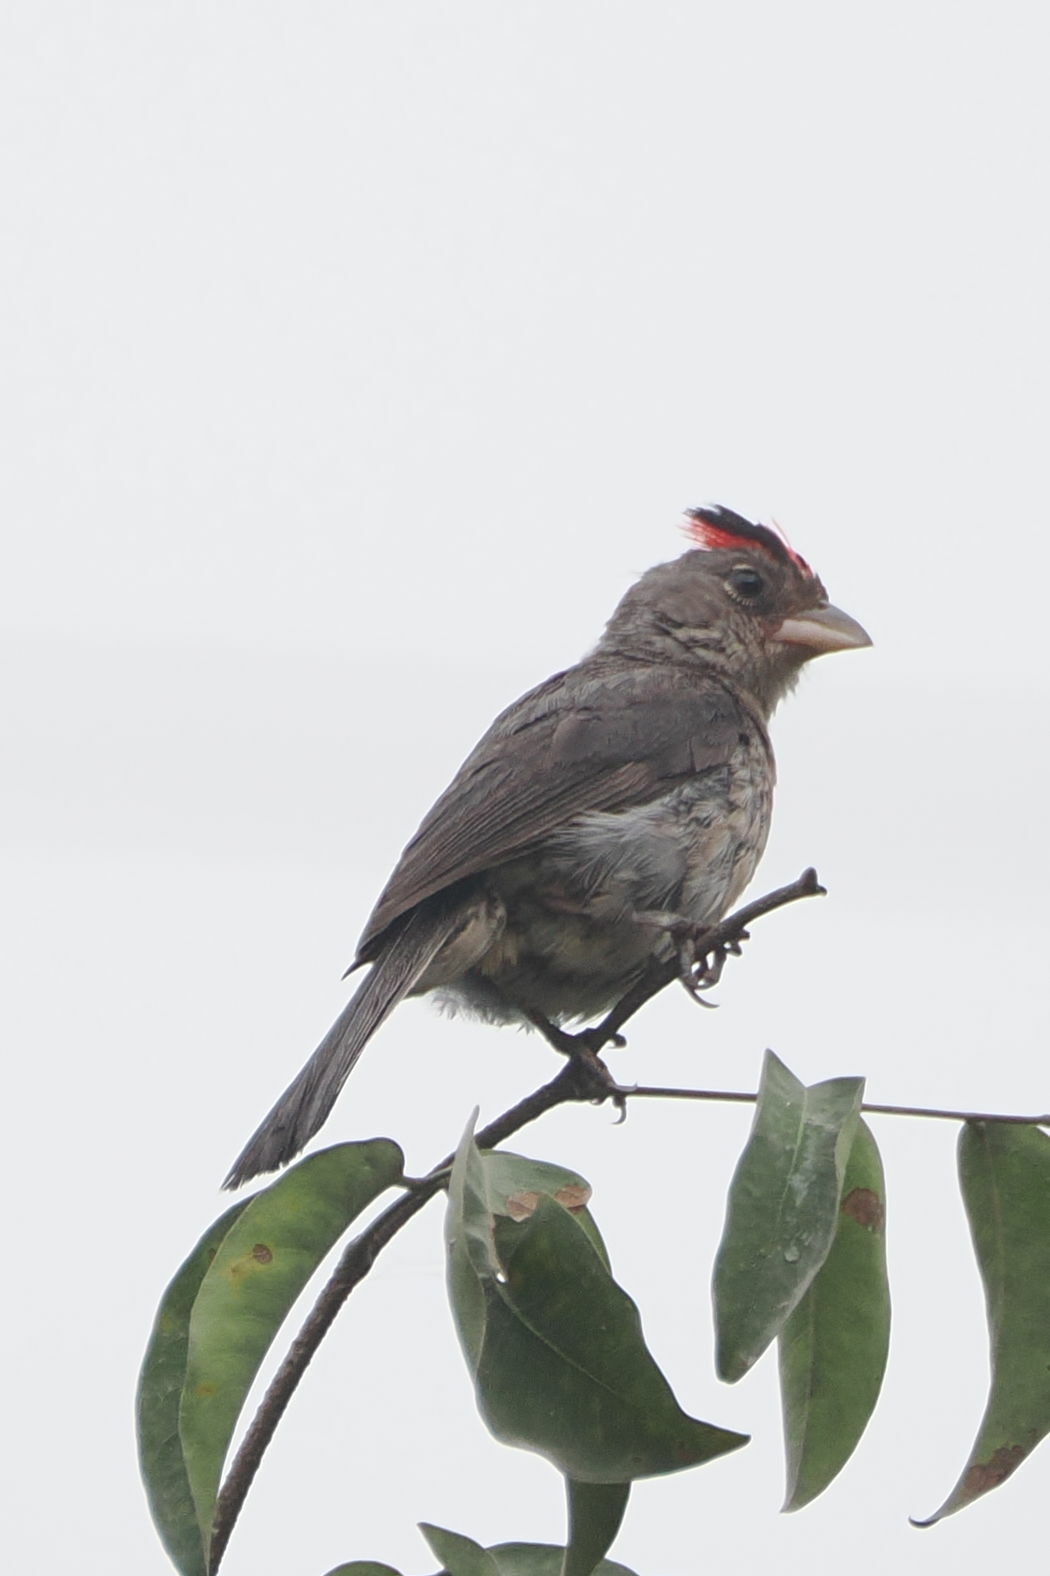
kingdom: Animalia
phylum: Chordata
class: Aves
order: Passeriformes
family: Thraupidae
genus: Coryphospingus
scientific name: Coryphospingus pileatus
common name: Grey pileated finch
